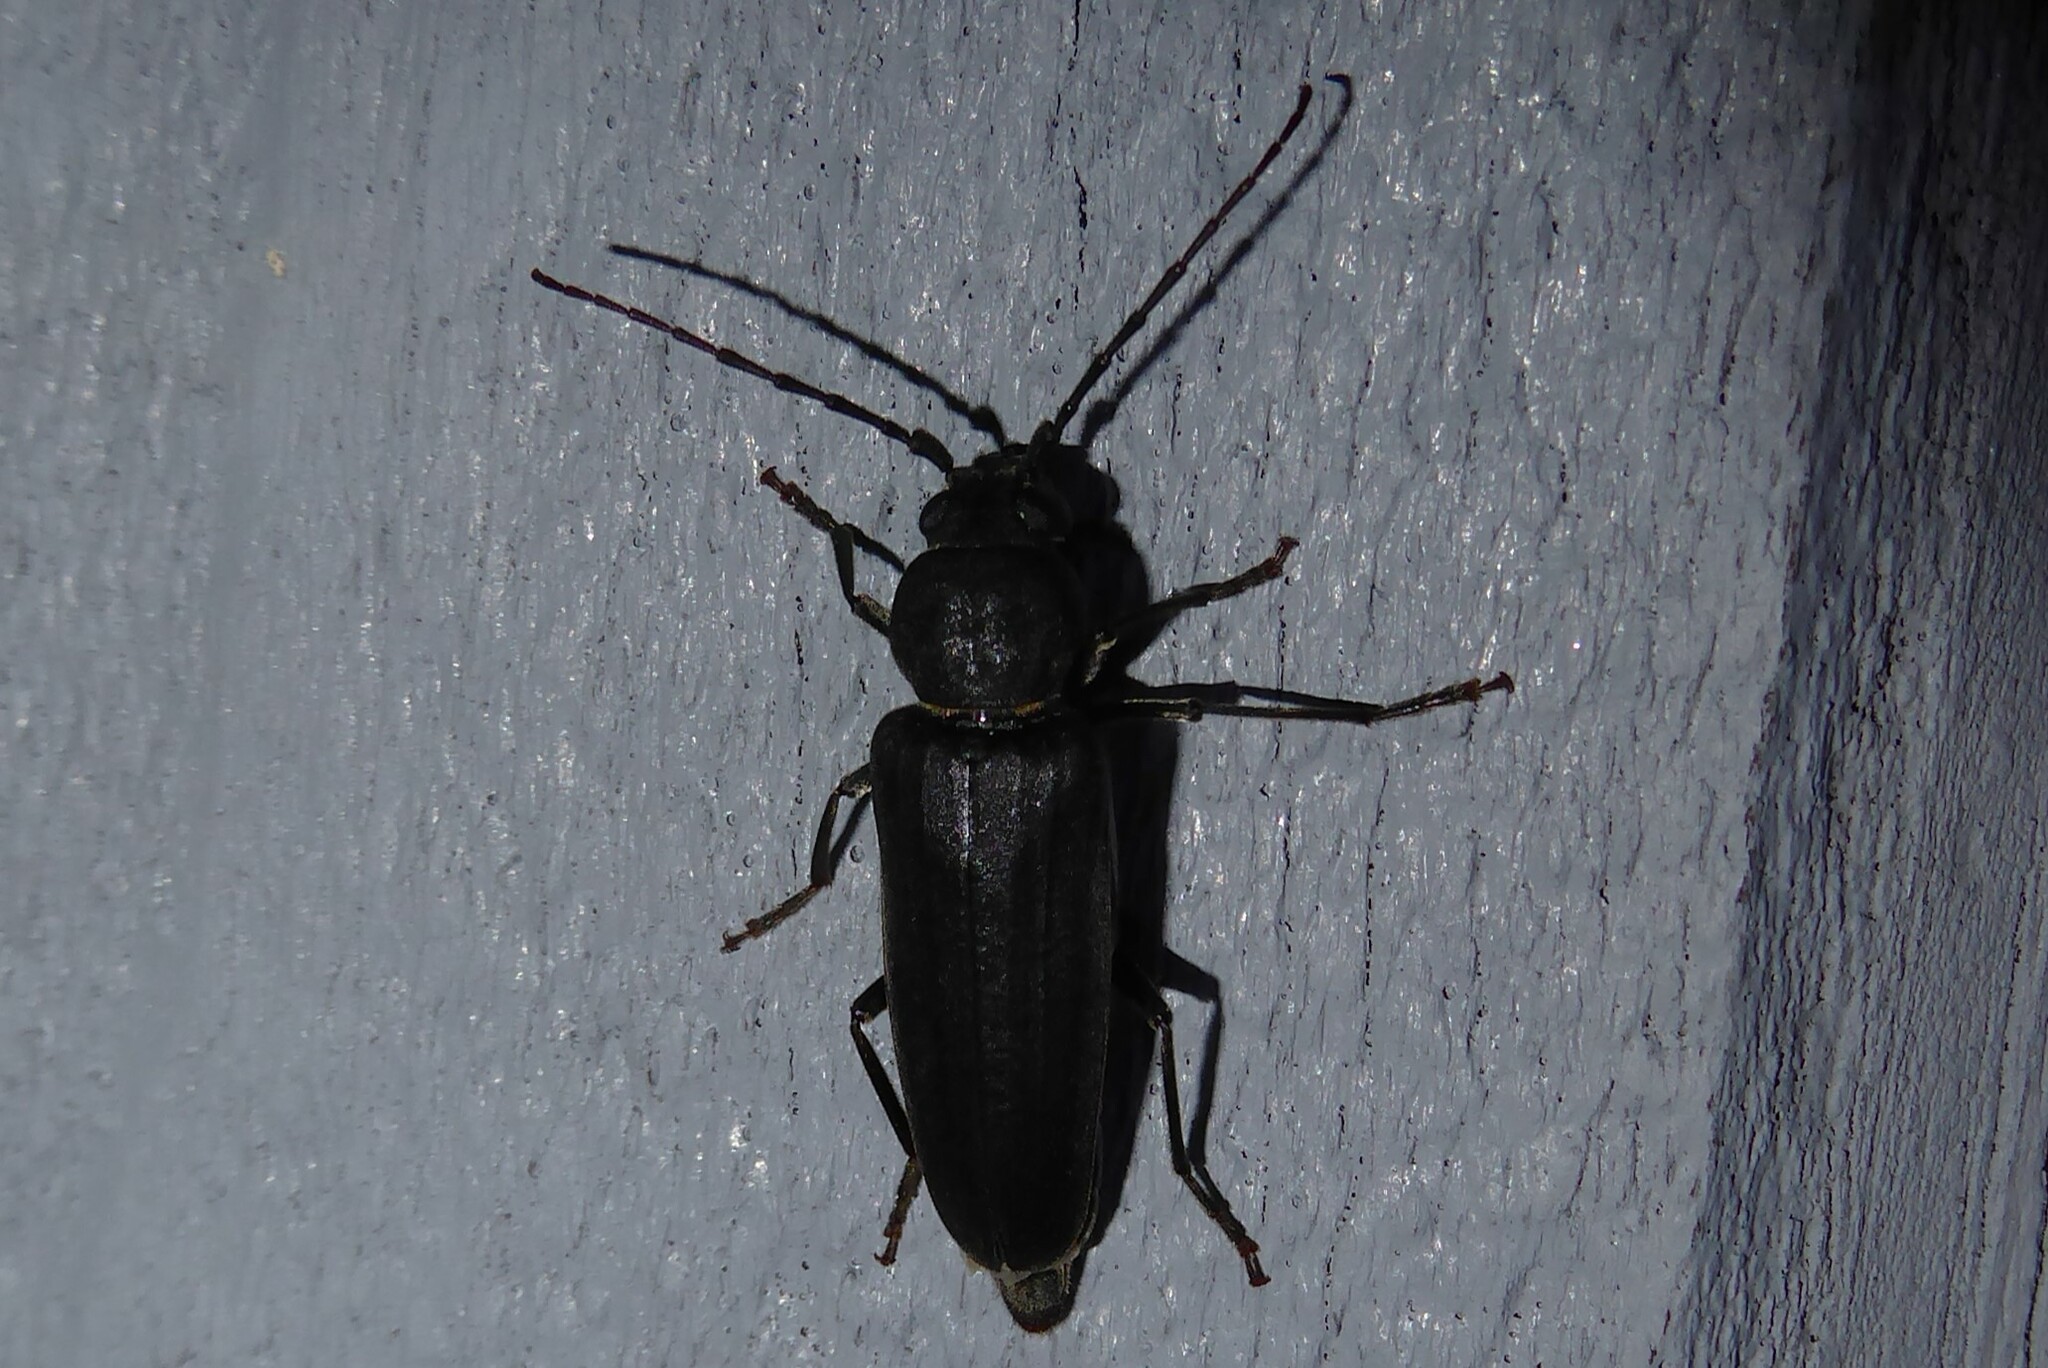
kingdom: Animalia
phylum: Arthropoda
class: Insecta
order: Coleoptera
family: Cerambycidae
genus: Arhopalus
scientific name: Arhopalus ferus
